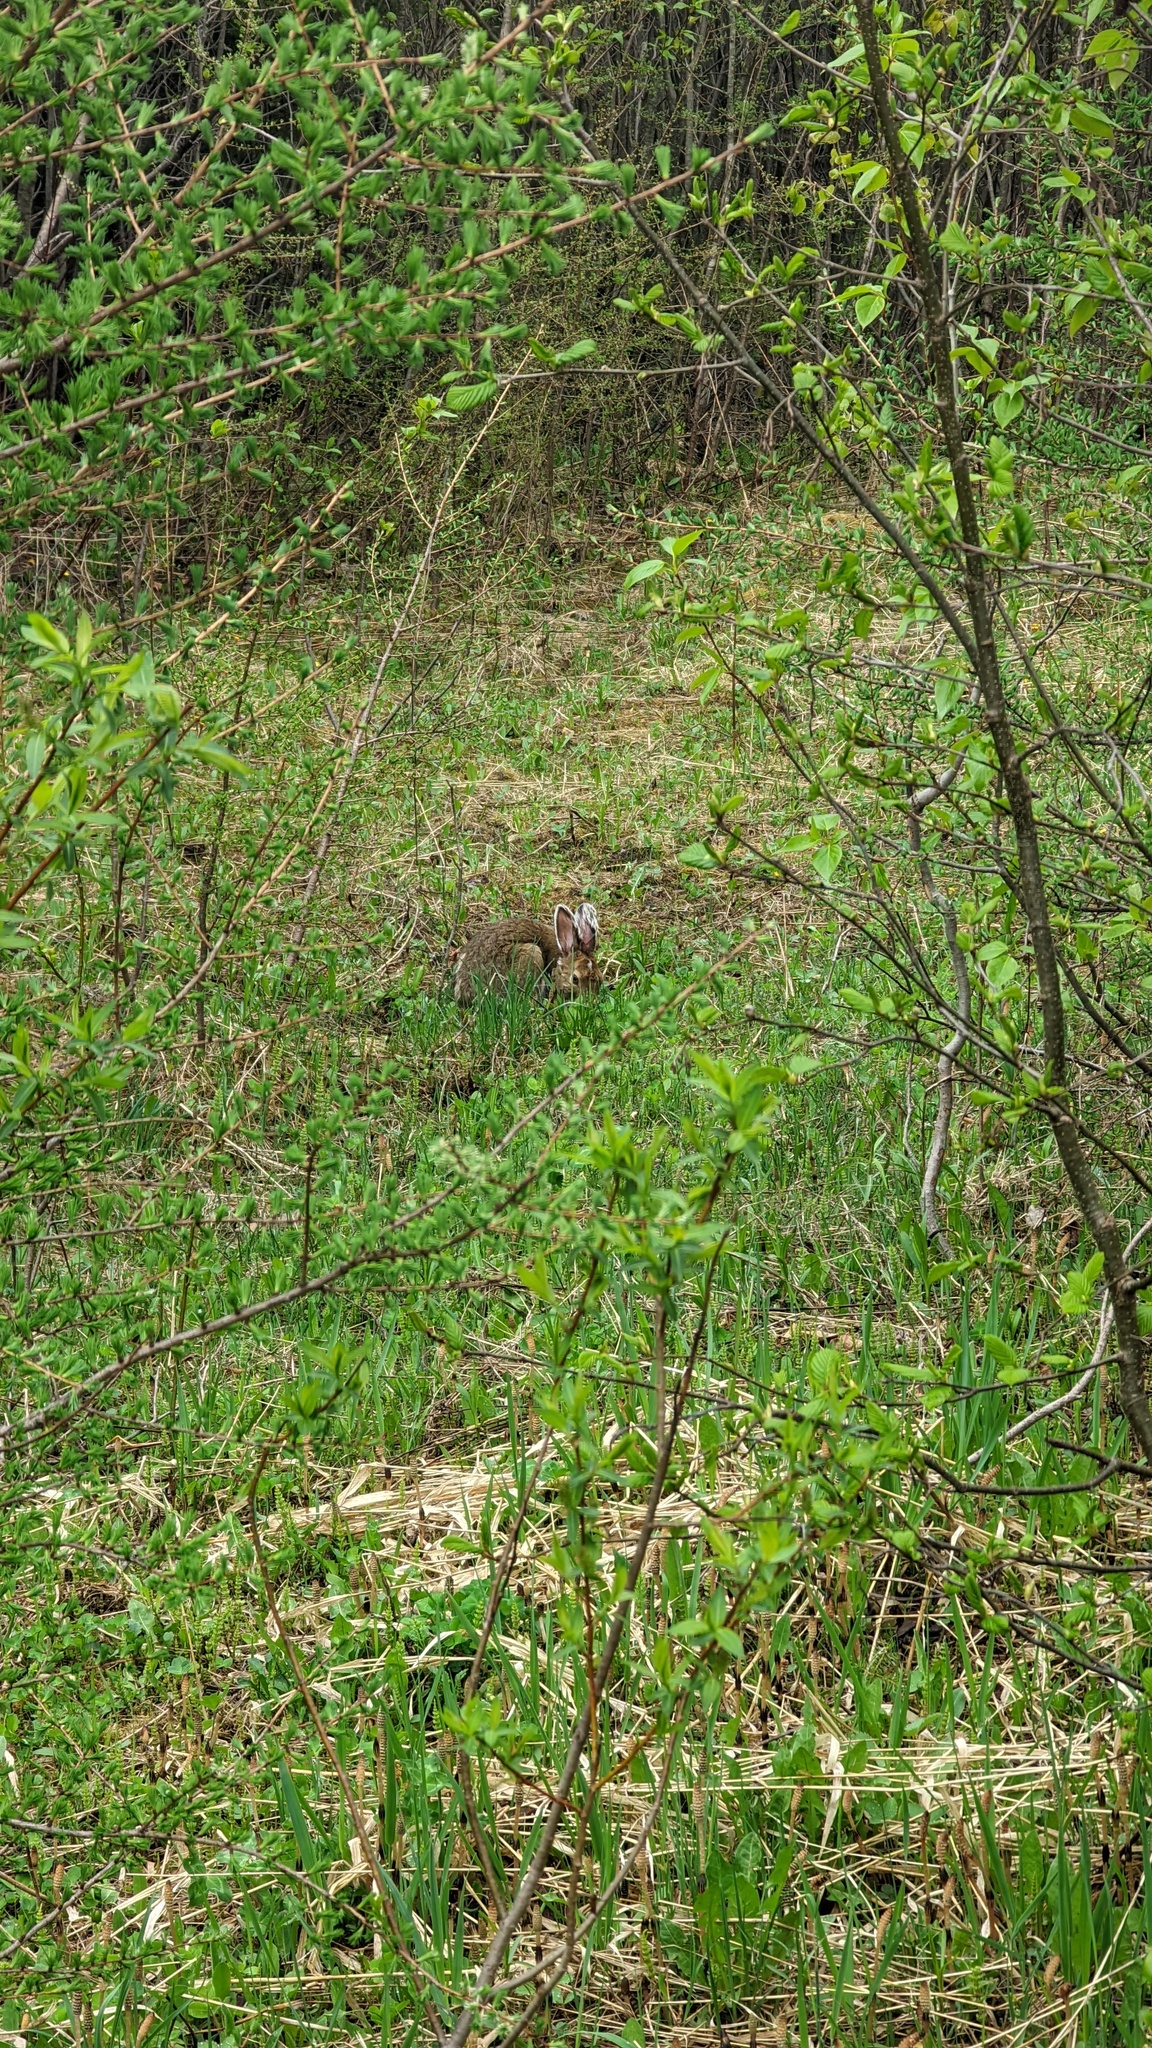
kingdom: Animalia
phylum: Chordata
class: Mammalia
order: Lagomorpha
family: Leporidae
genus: Lepus
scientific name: Lepus americanus
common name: Snowshoe hare
